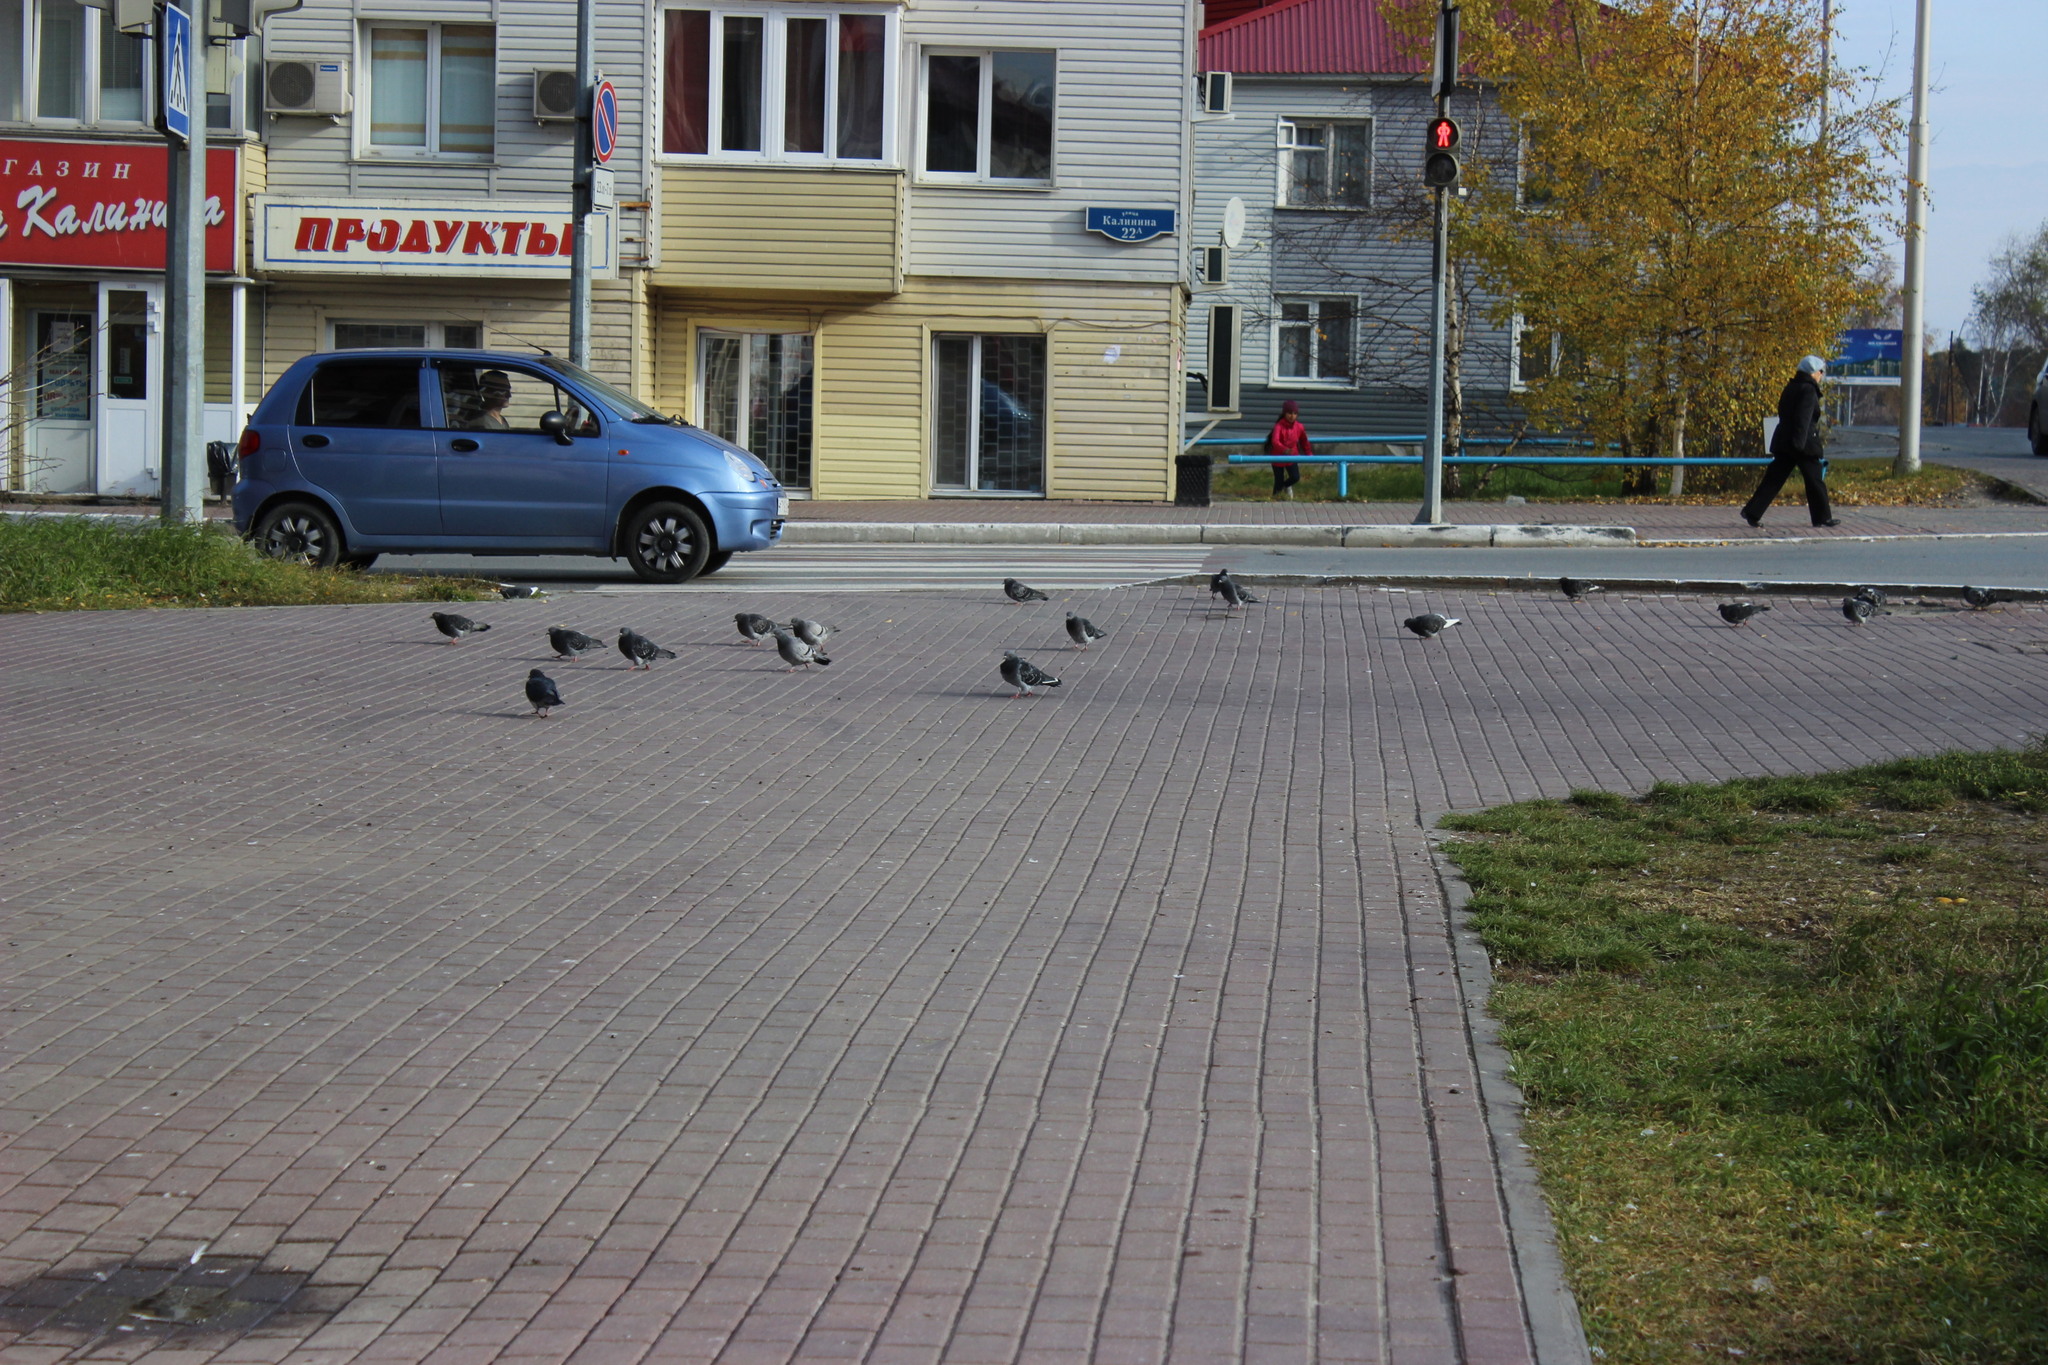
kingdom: Animalia
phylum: Chordata
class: Aves
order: Columbiformes
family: Columbidae
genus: Columba
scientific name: Columba livia
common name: Rock pigeon
